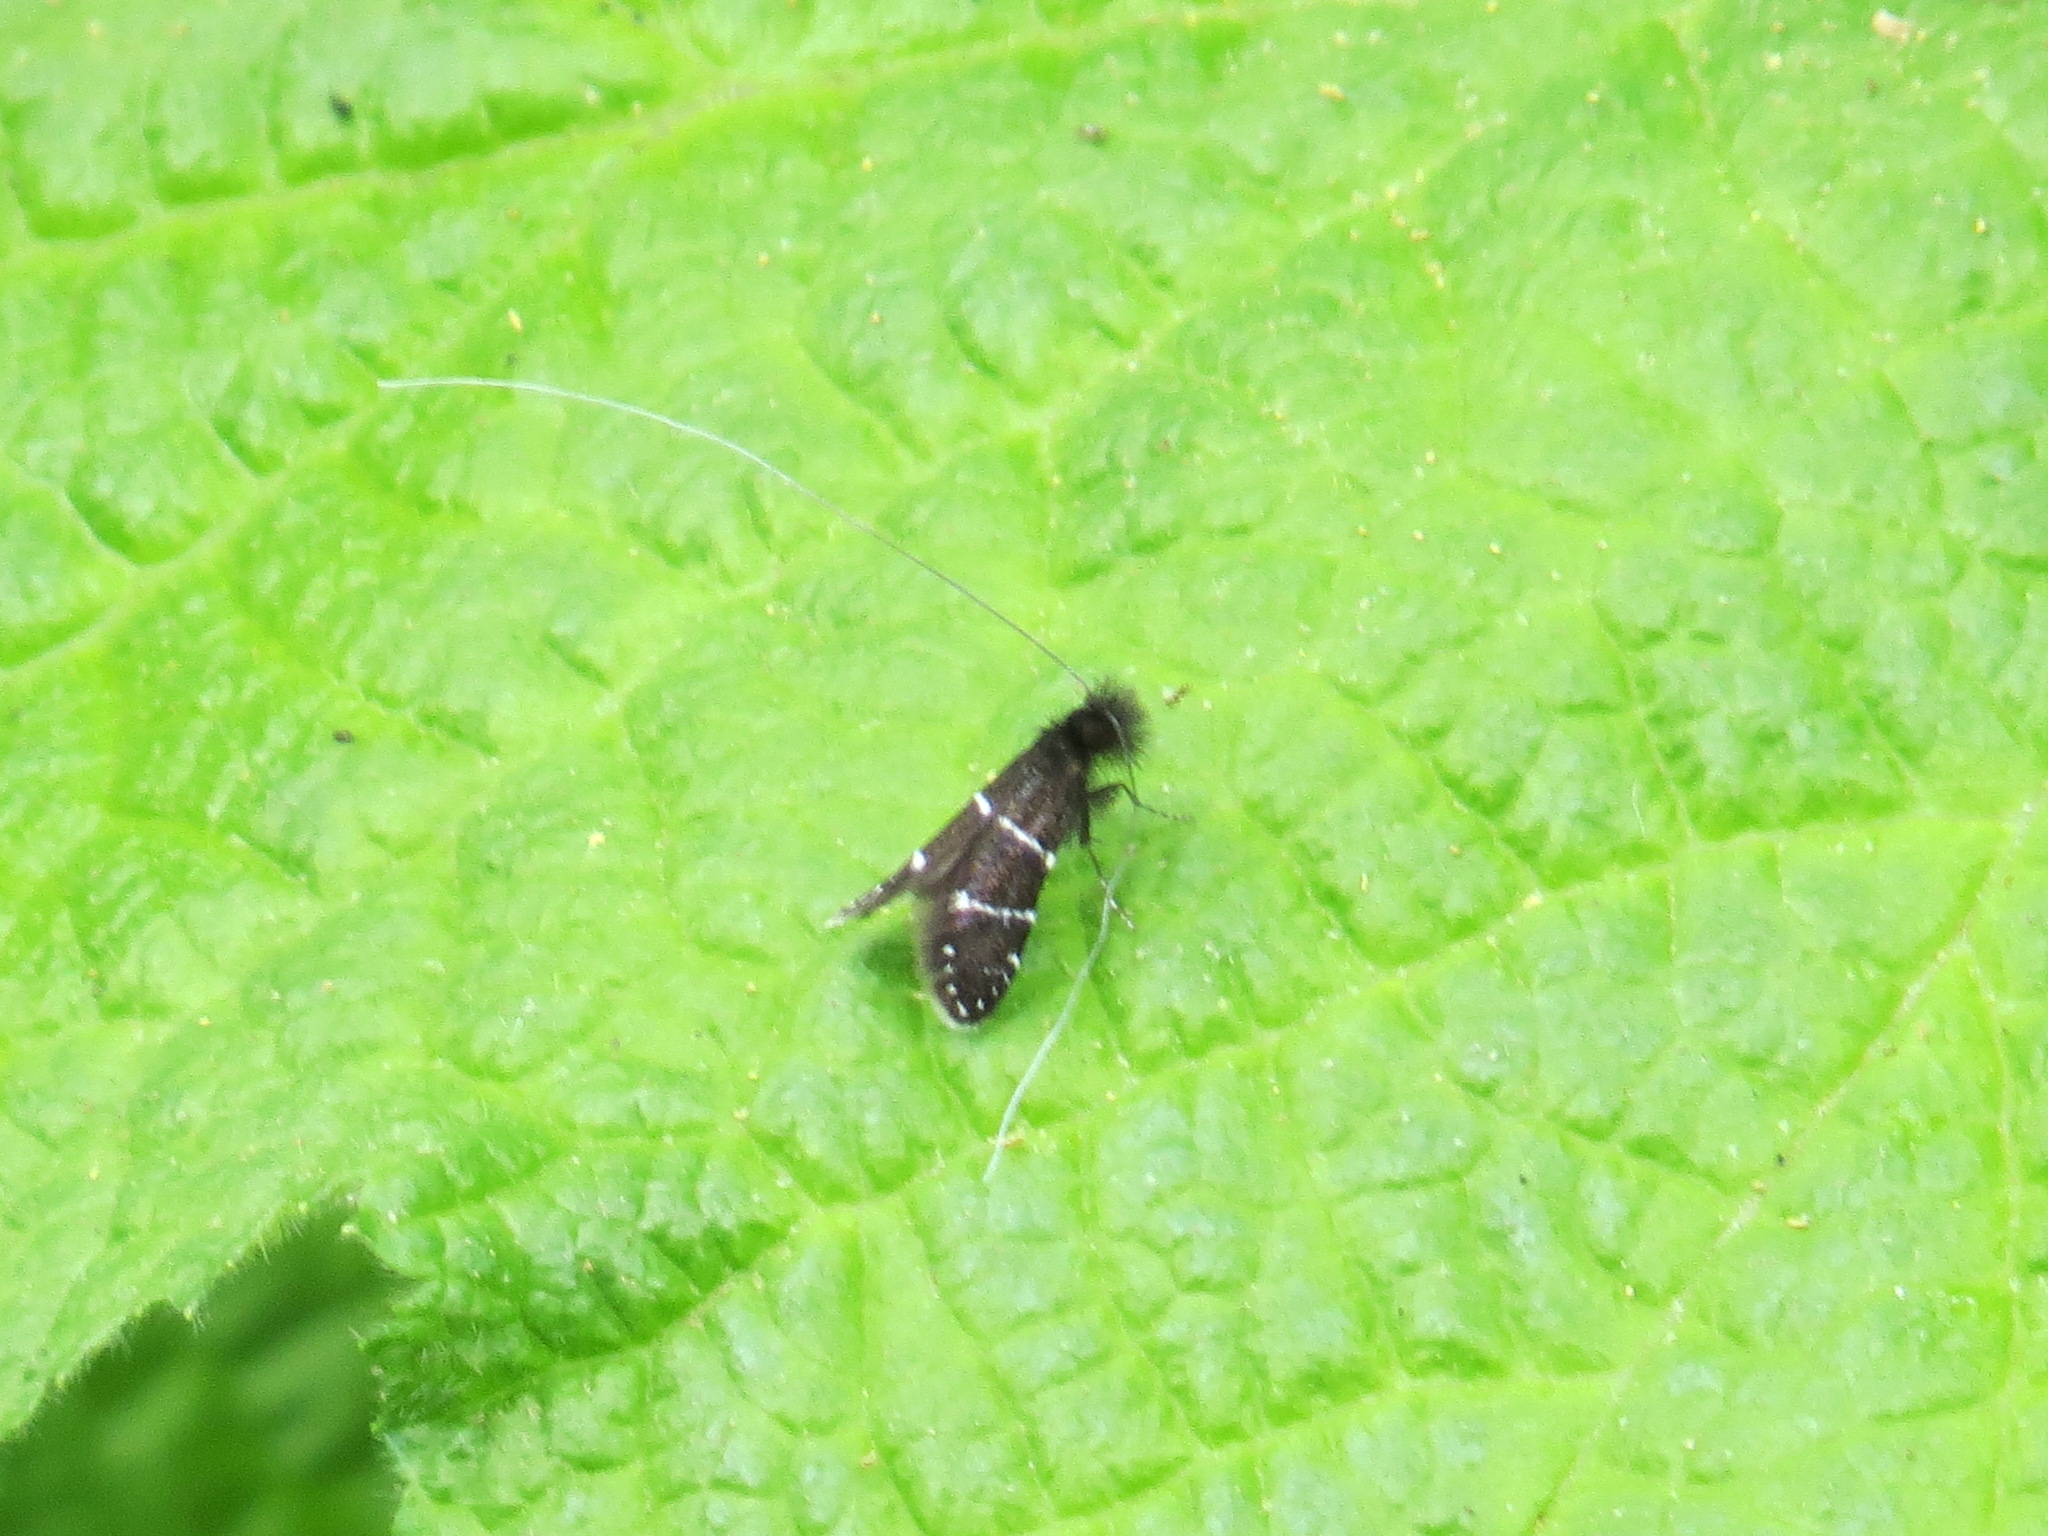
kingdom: Animalia
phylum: Arthropoda
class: Insecta
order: Lepidoptera
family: Adelidae
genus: Adela
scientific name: Adela septentrionella
